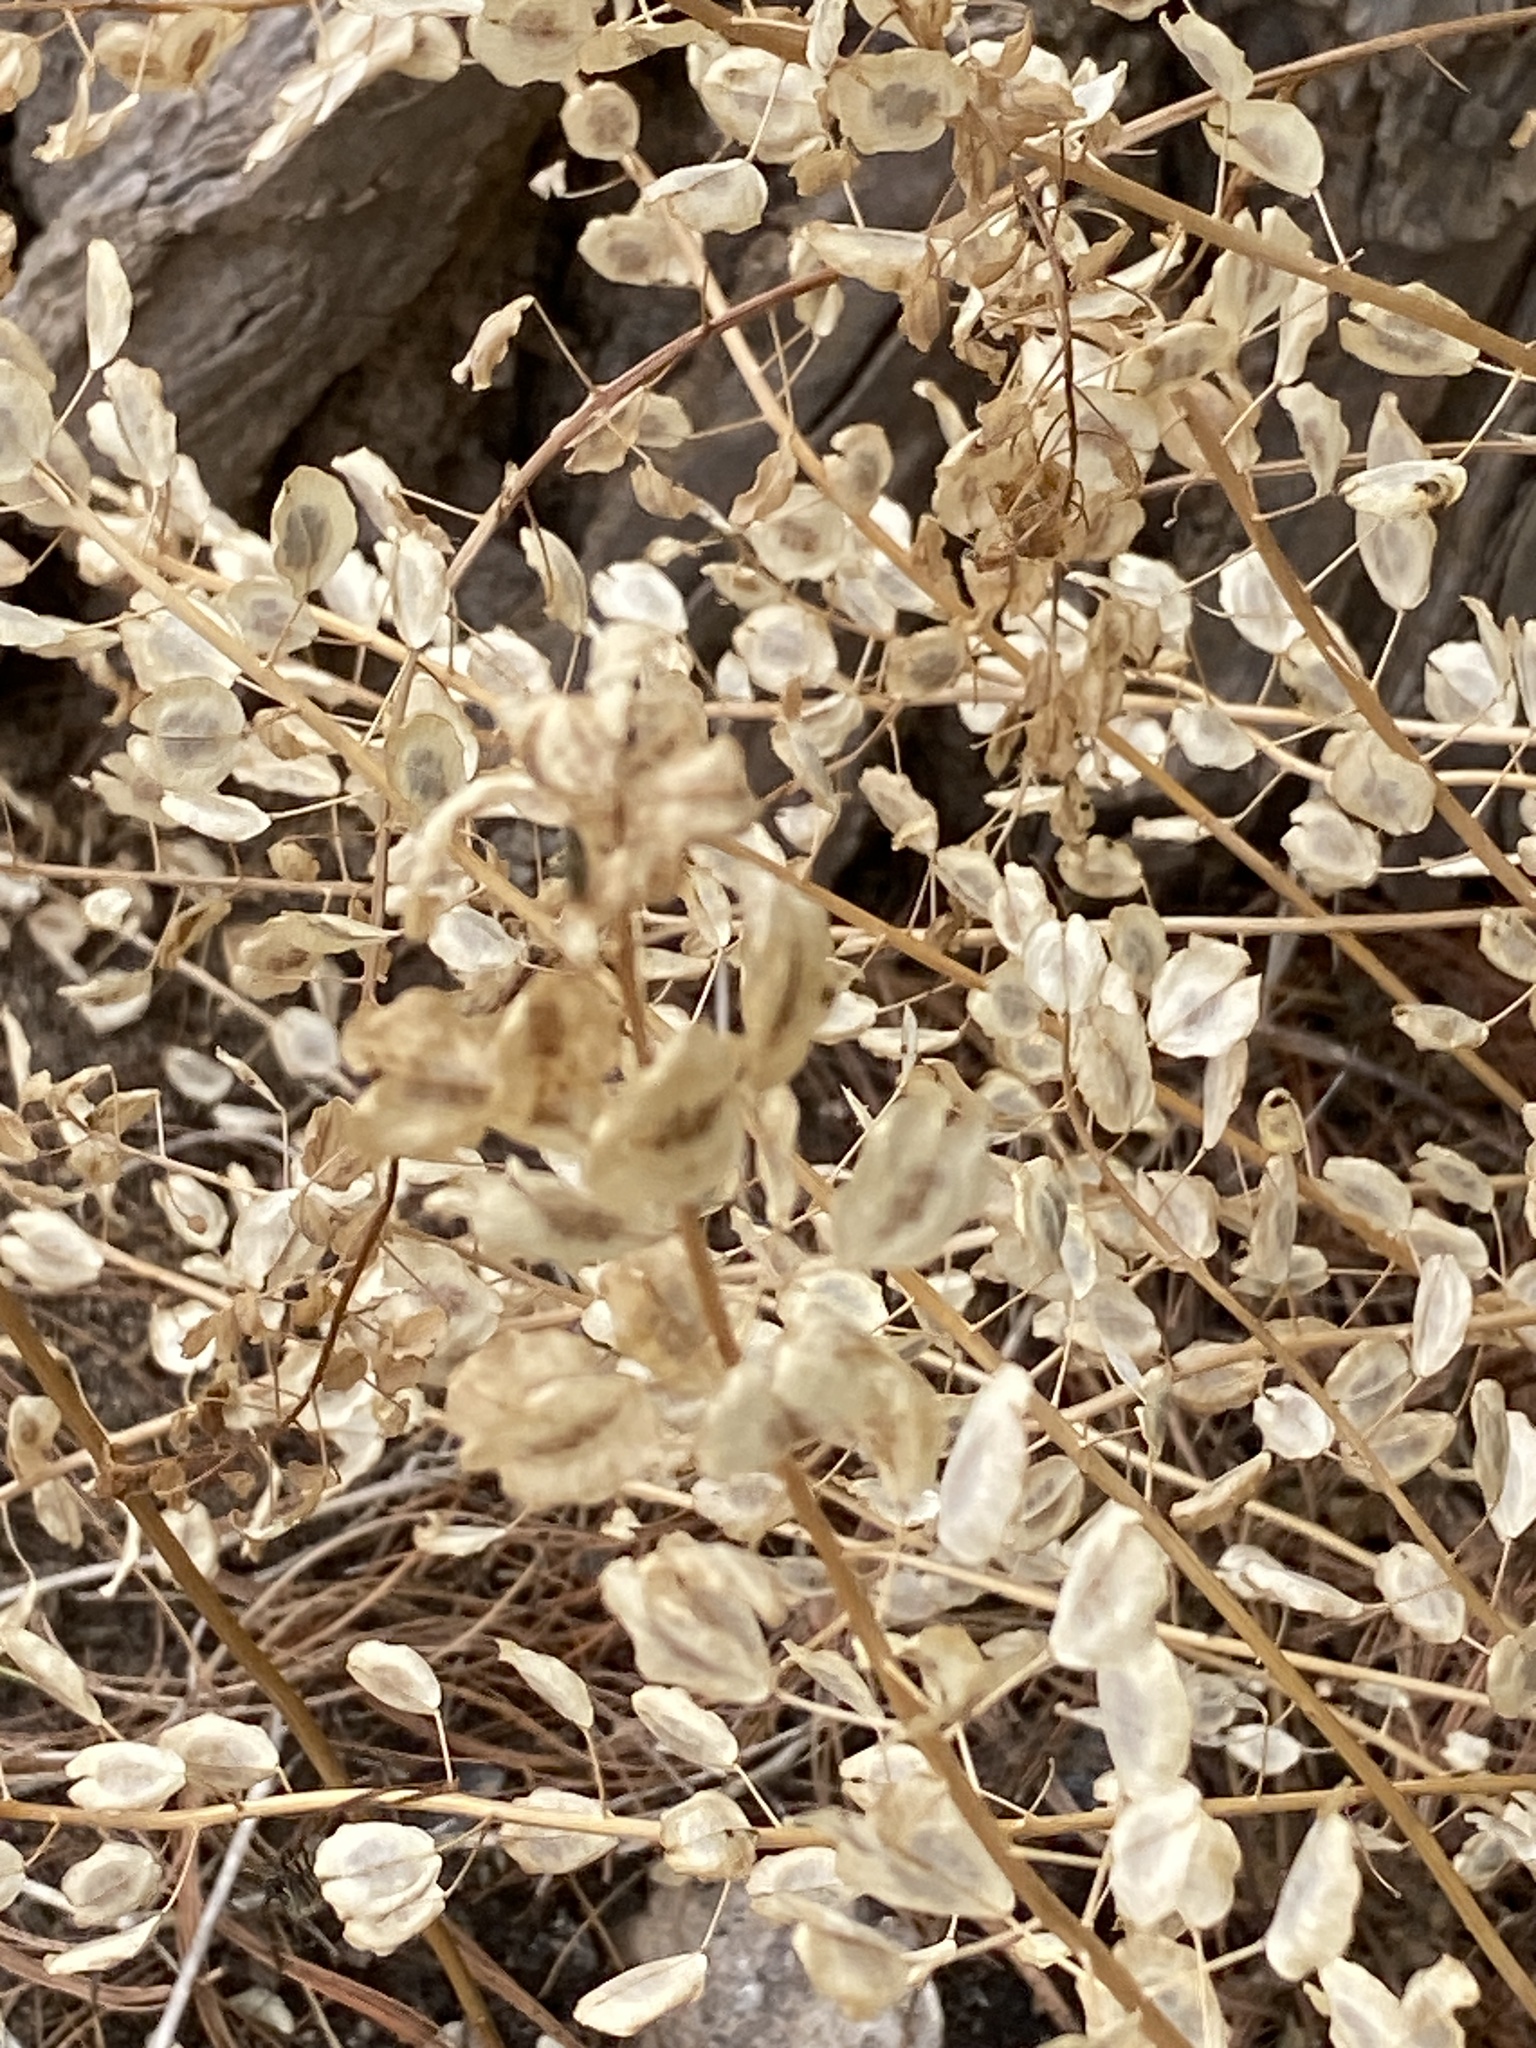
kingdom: Plantae
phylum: Tracheophyta
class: Magnoliopsida
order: Brassicales
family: Brassicaceae
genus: Thlaspi
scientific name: Thlaspi arvense
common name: Field pennycress
